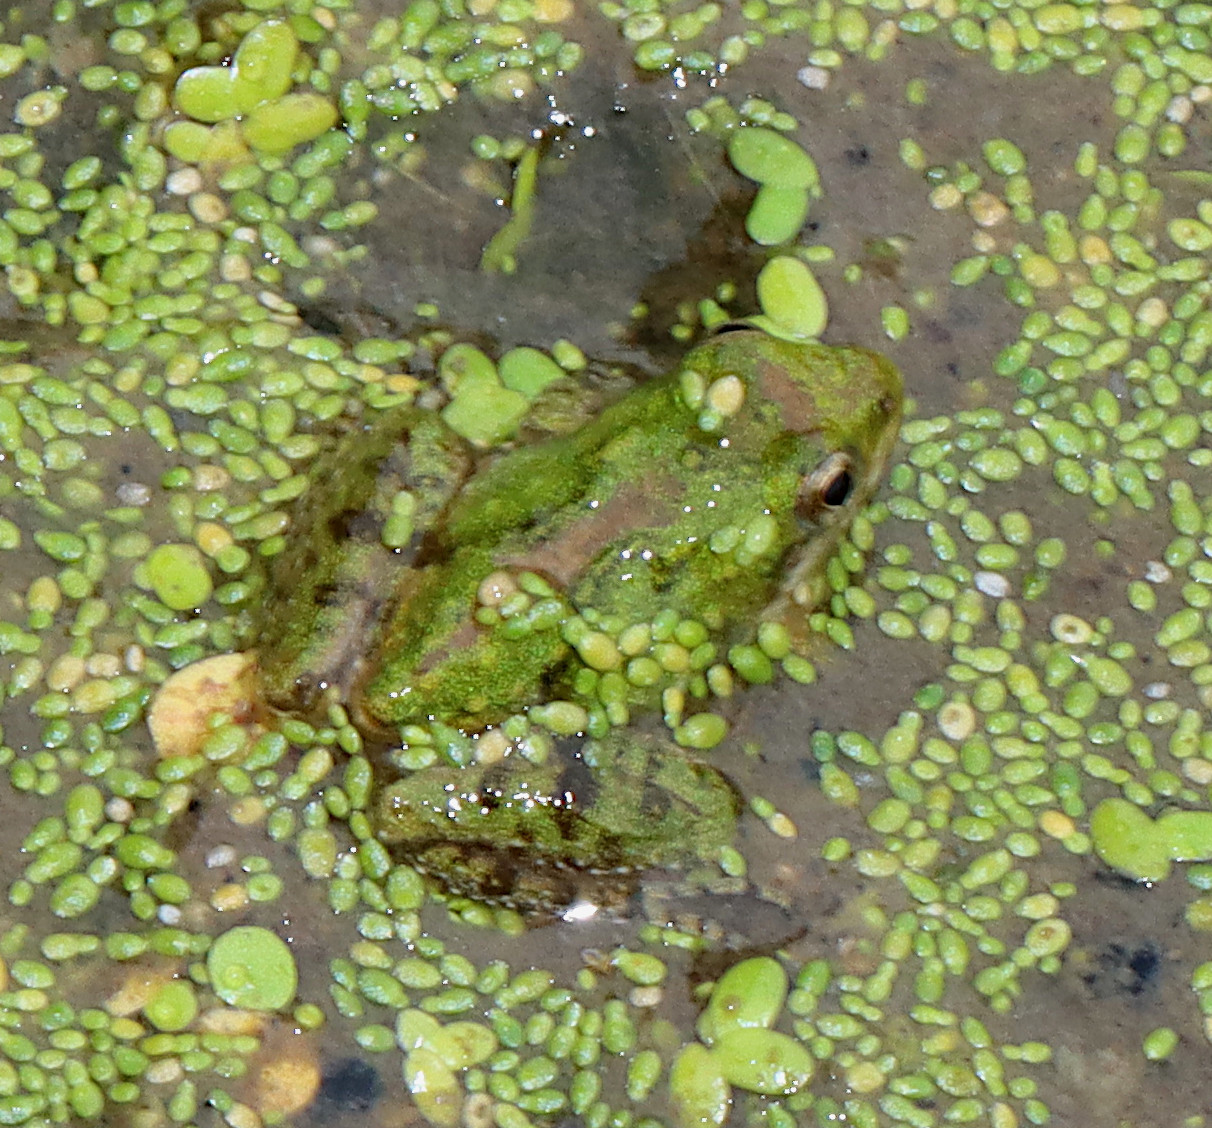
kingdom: Animalia
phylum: Chordata
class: Amphibia
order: Anura
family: Hylidae
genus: Acris
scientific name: Acris blanchardi
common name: Blanchard's cricket frog
